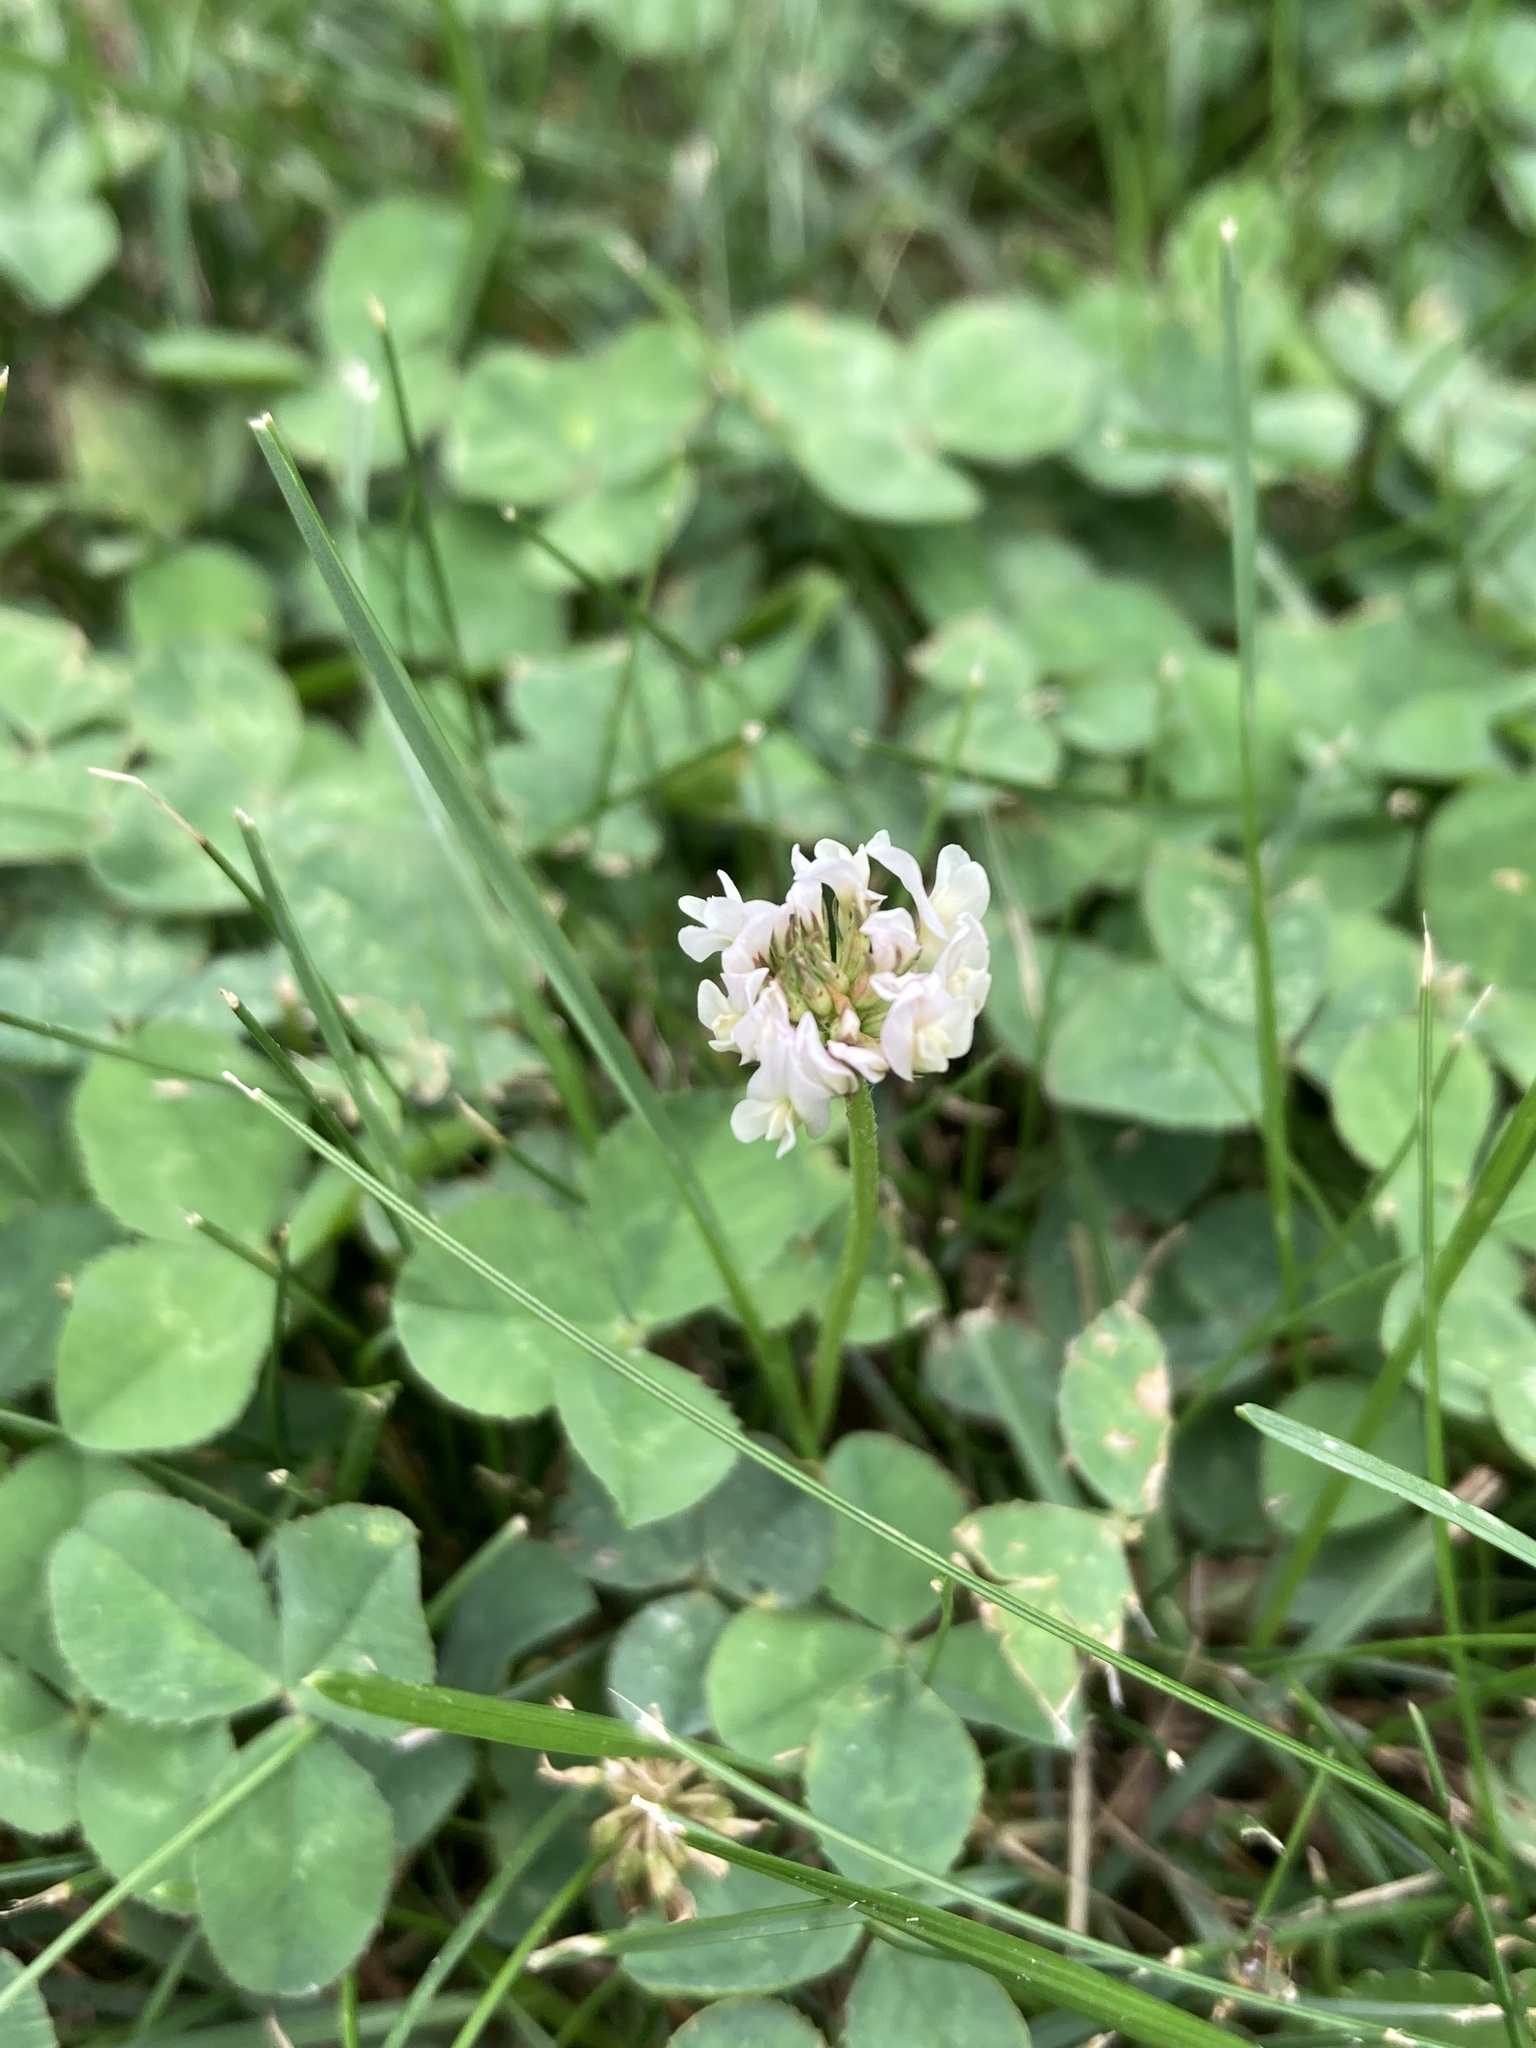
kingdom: Plantae
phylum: Tracheophyta
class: Magnoliopsida
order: Fabales
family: Fabaceae
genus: Trifolium
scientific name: Trifolium repens
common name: White clover
